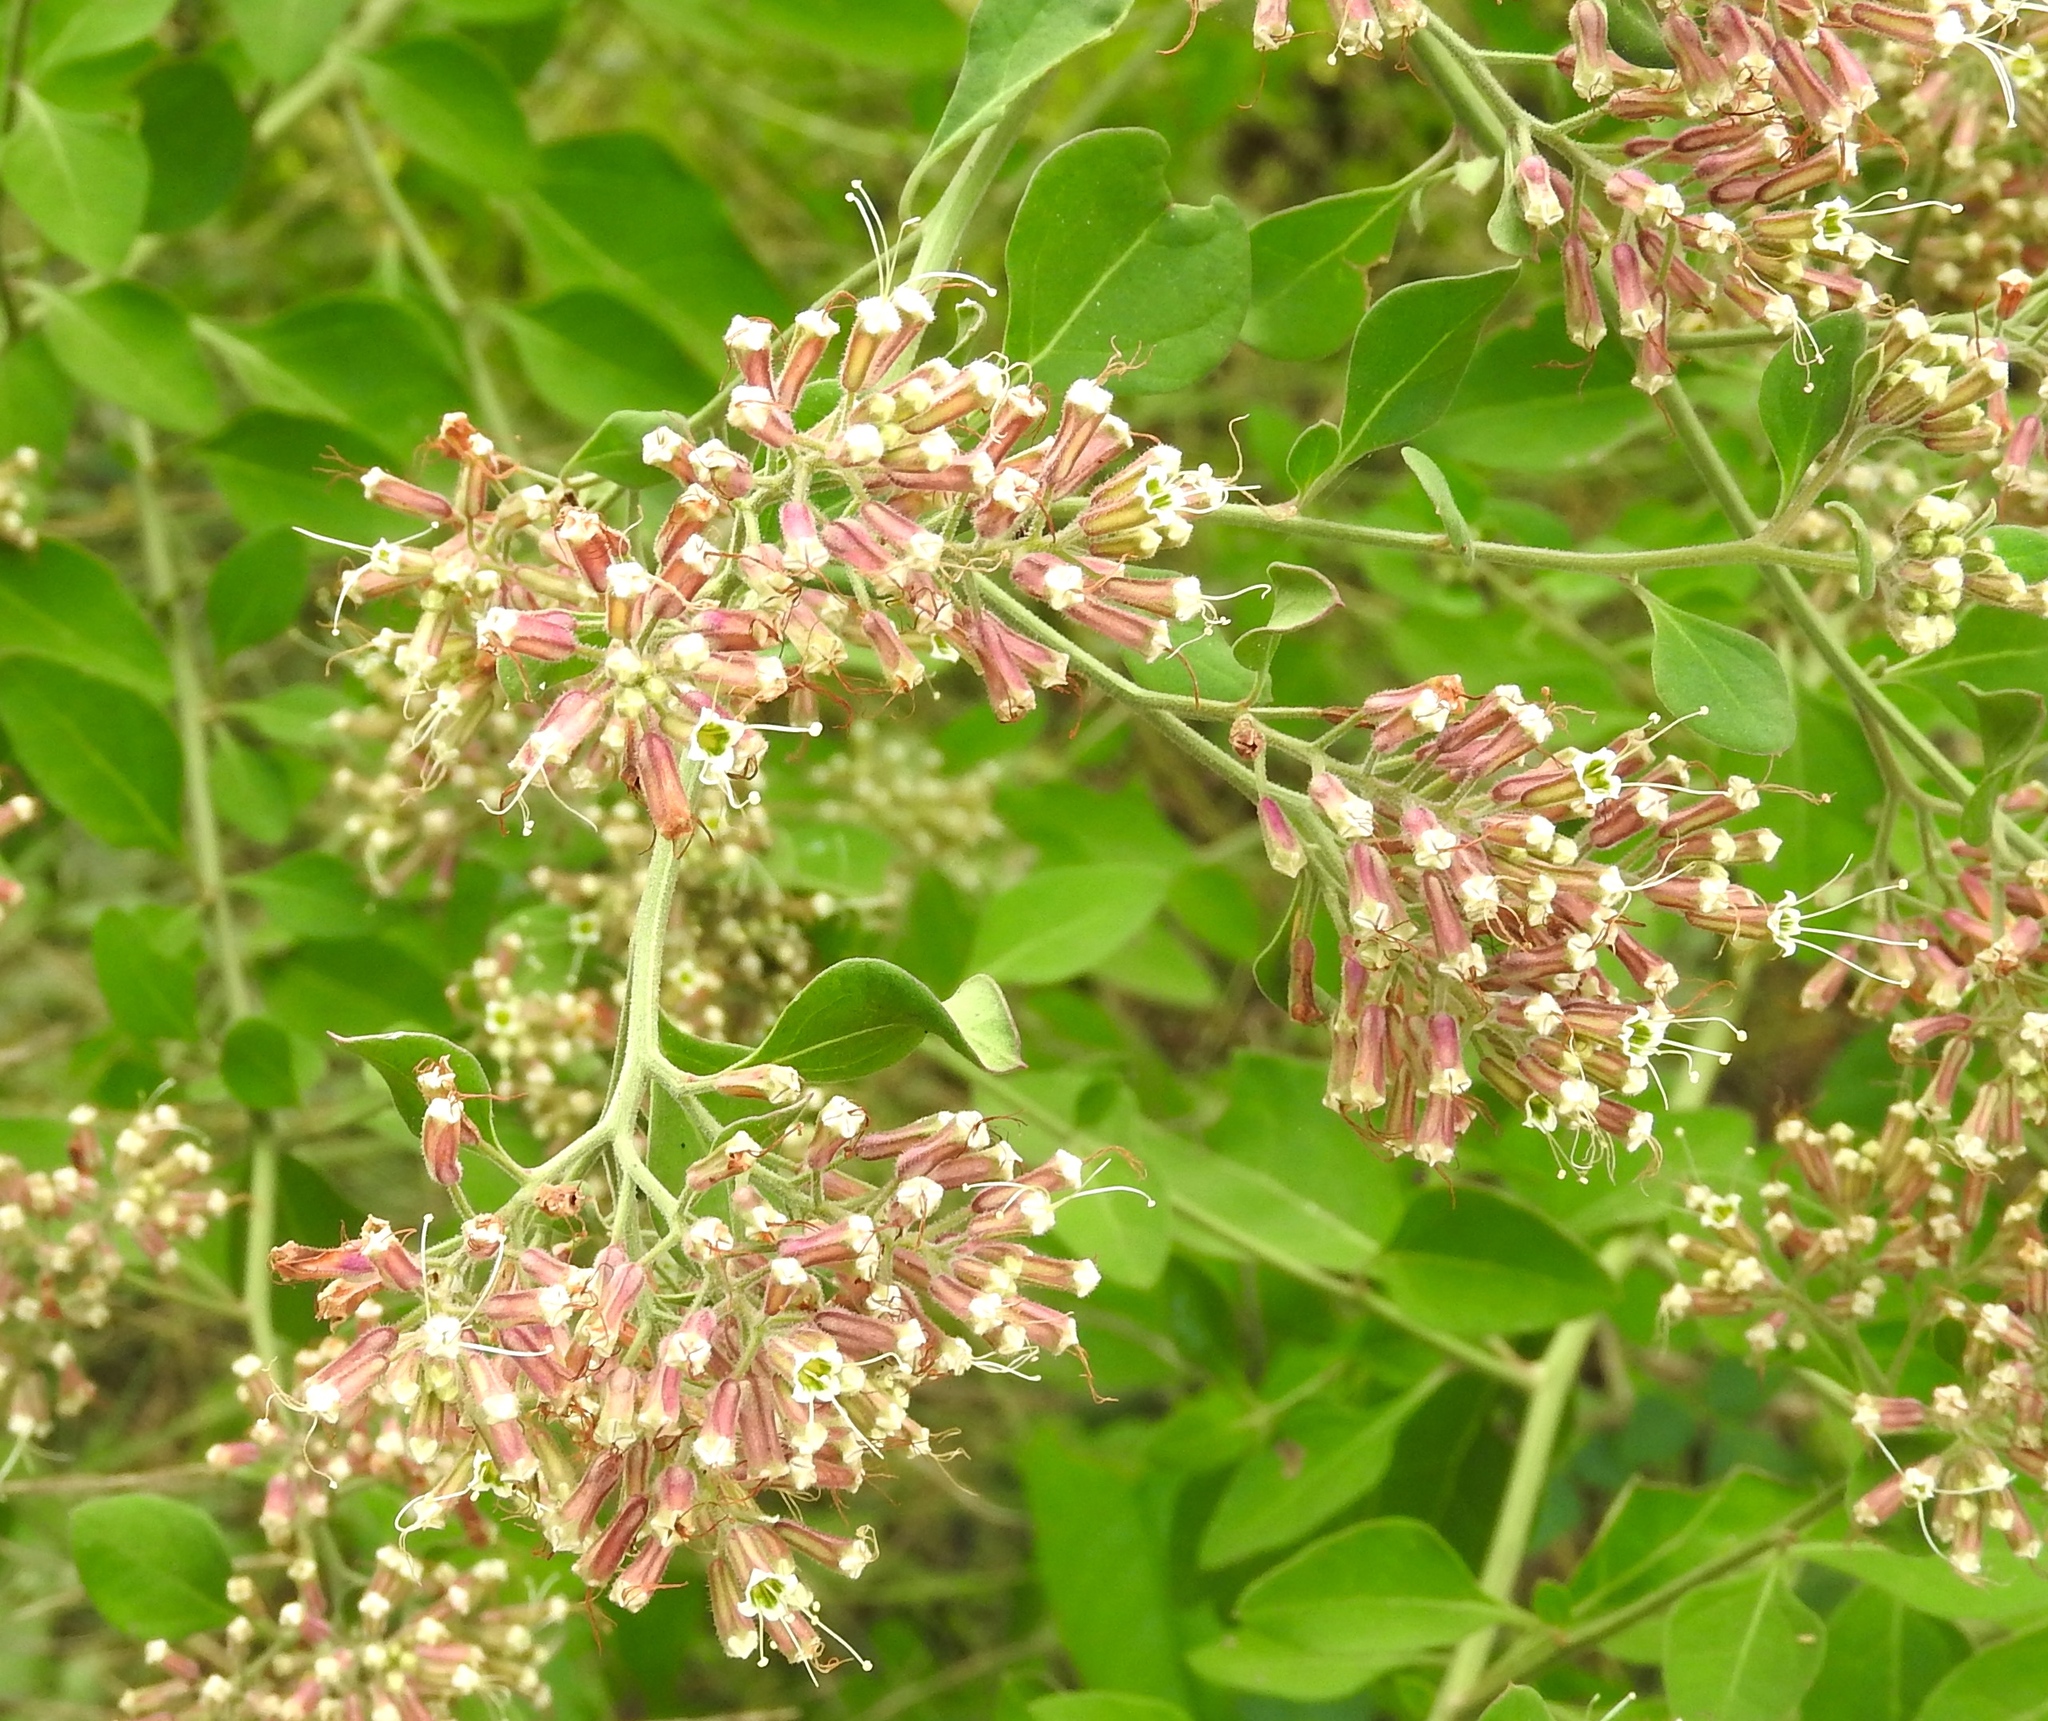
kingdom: Plantae
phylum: Tracheophyta
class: Magnoliopsida
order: Caryophyllales
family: Nyctaginaceae
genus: Salpianthus
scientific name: Salpianthus macrodontus
